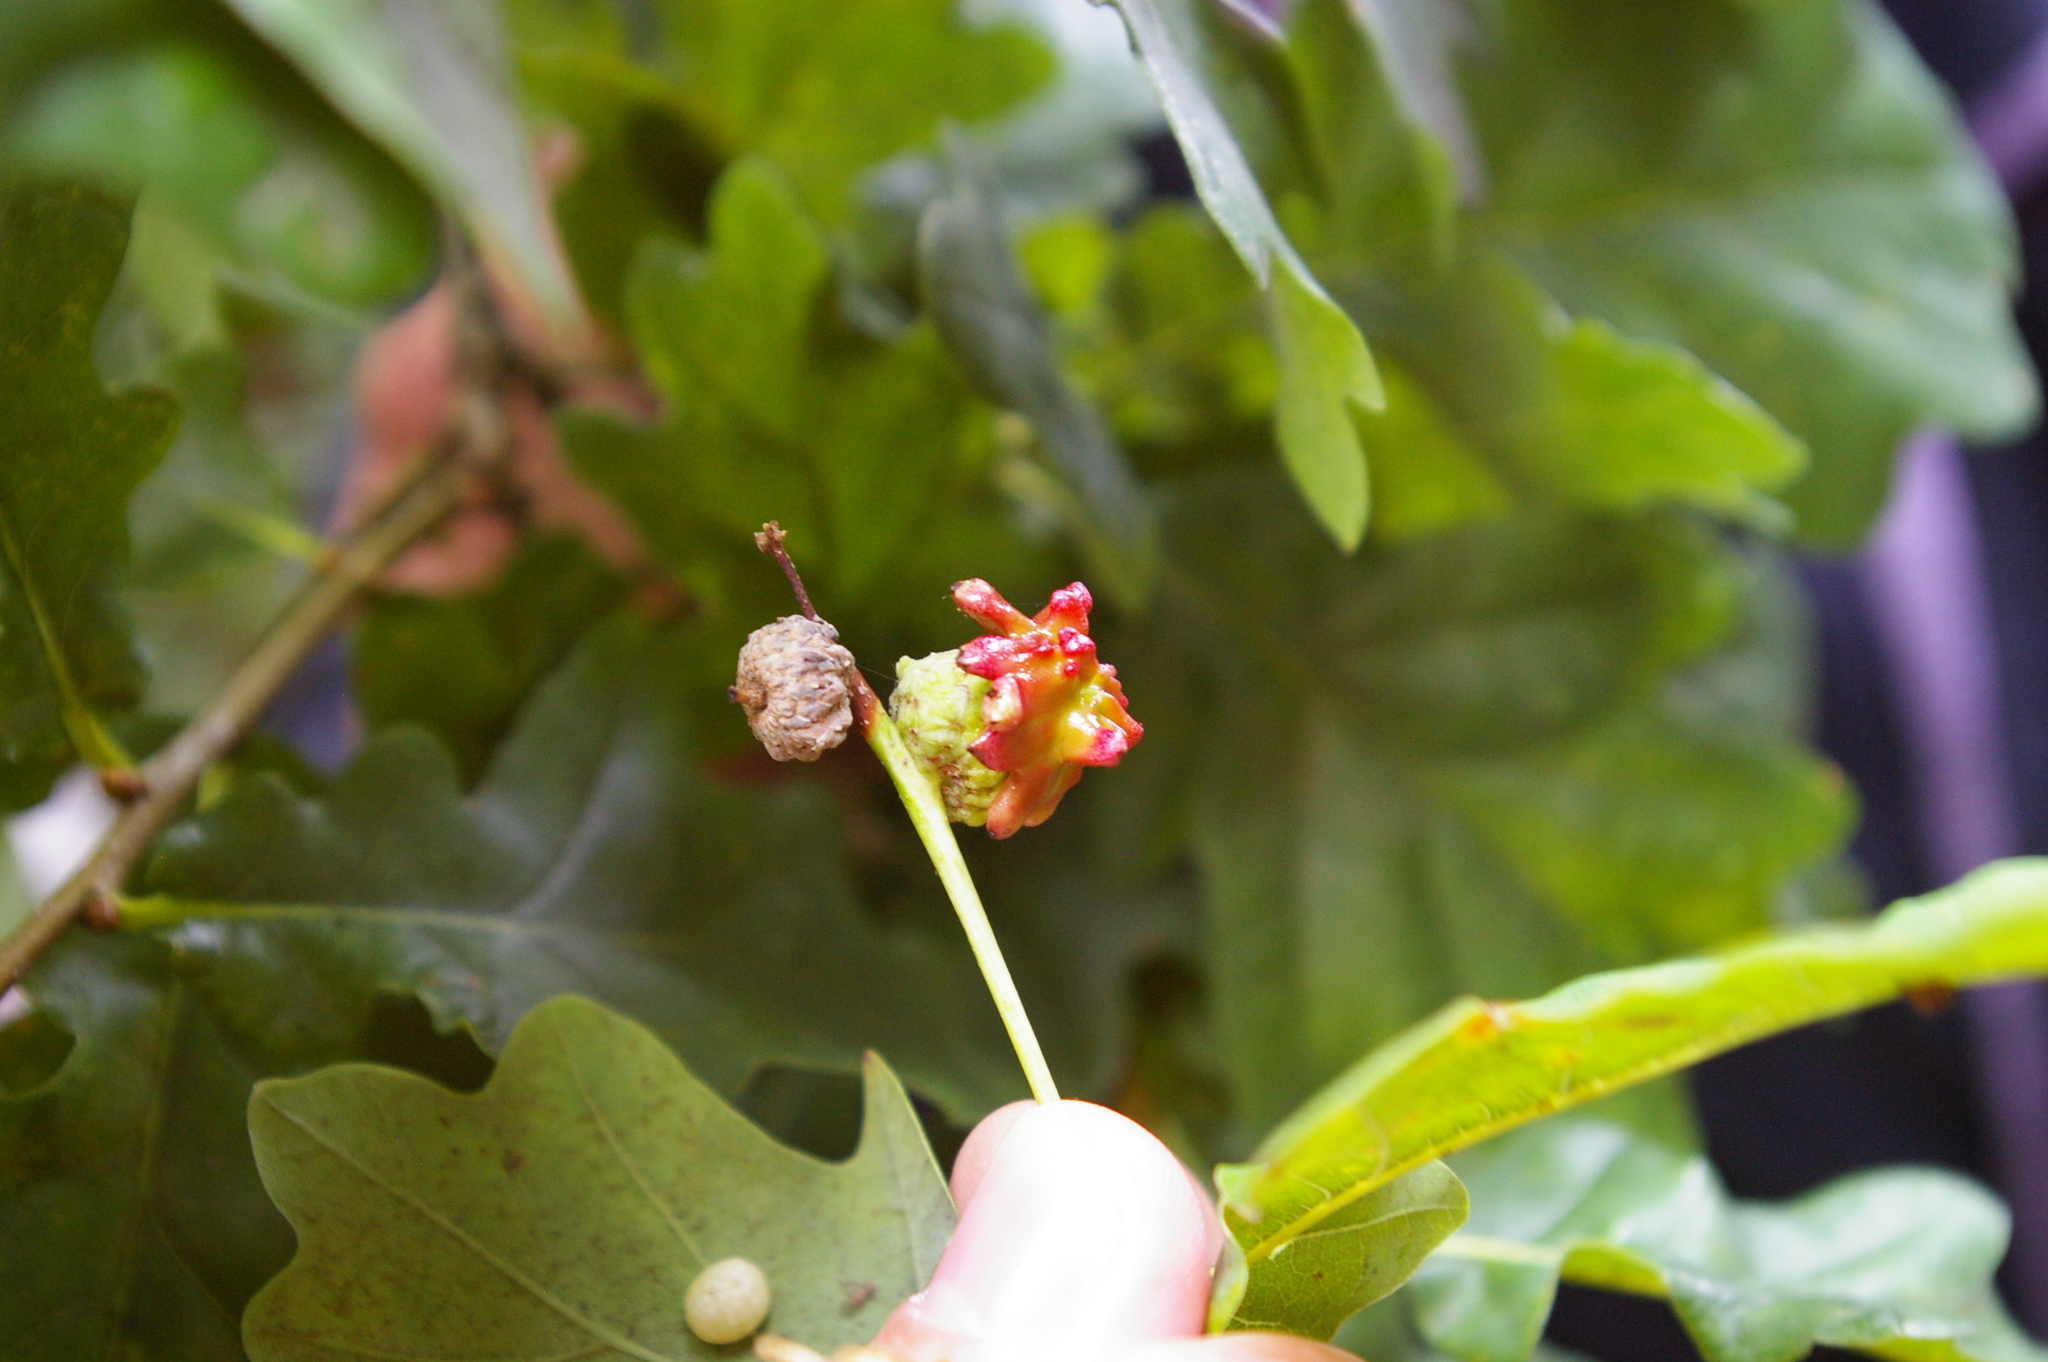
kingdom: Animalia
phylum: Arthropoda
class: Insecta
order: Hymenoptera
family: Cynipidae
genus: Andricus
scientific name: Andricus quercuscalicis
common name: Knopper gall
